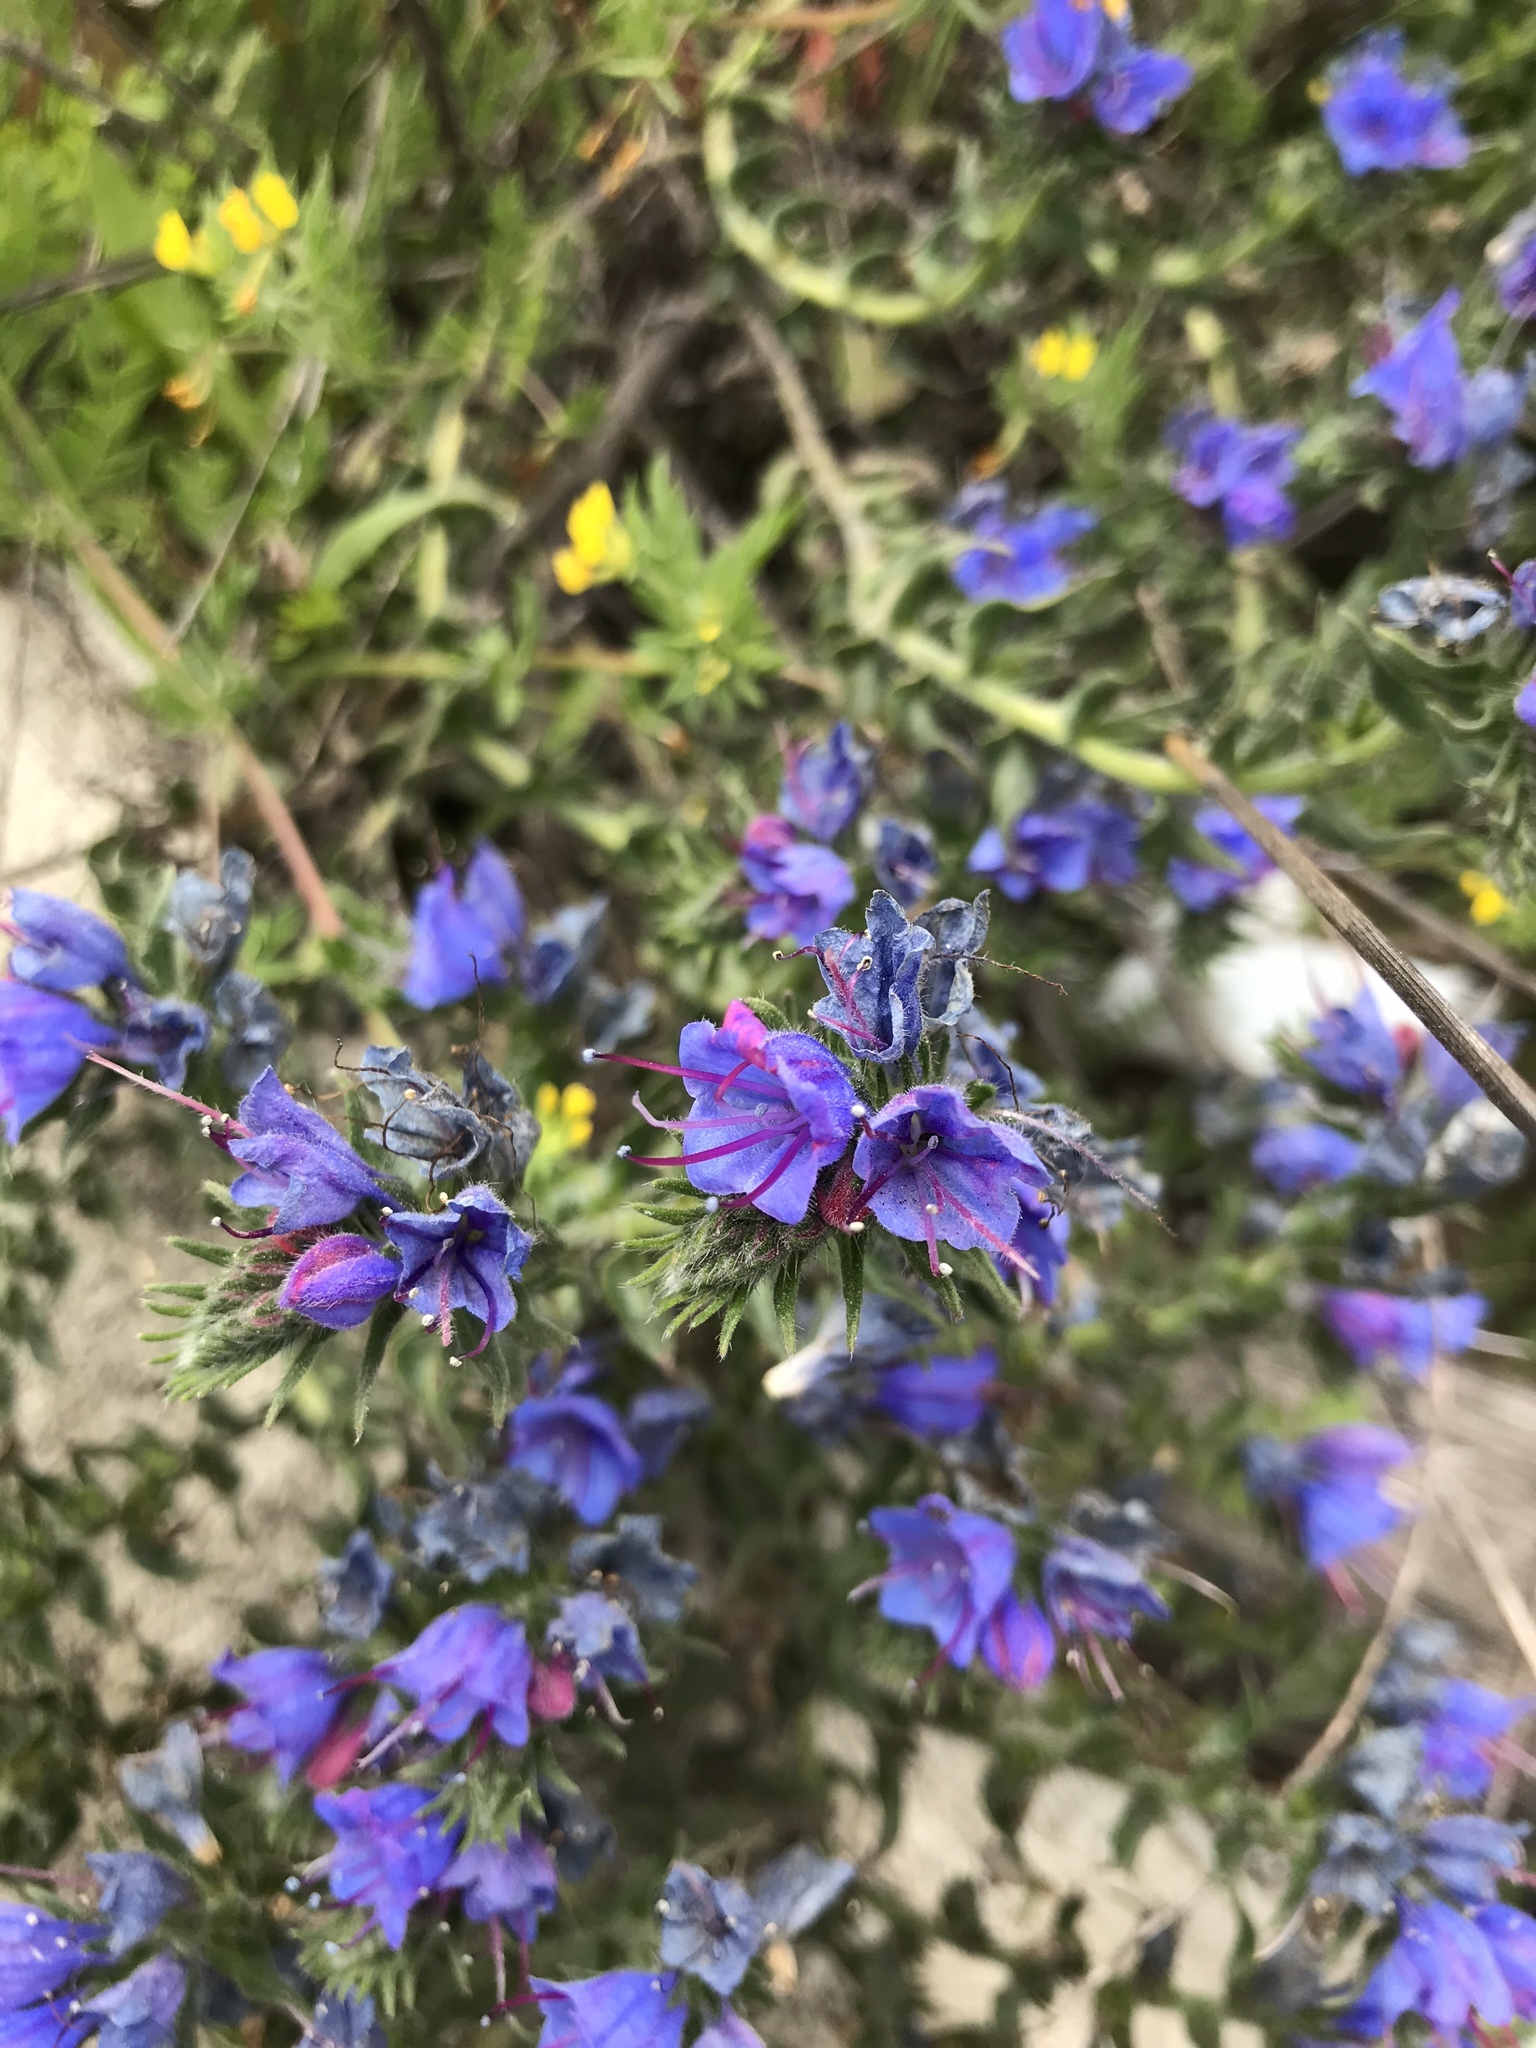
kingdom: Plantae
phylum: Tracheophyta
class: Magnoliopsida
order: Boraginales
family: Boraginaceae
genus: Echium
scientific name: Echium vulgare
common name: Common viper's bugloss
